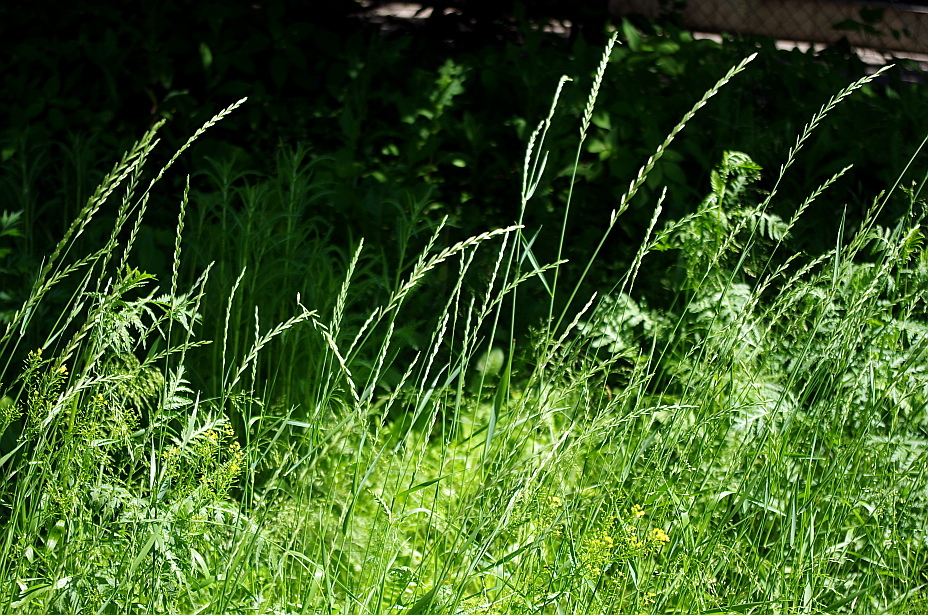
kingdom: Plantae
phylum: Tracheophyta
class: Liliopsida
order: Poales
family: Poaceae
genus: Elymus
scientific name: Elymus repens
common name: Quackgrass
